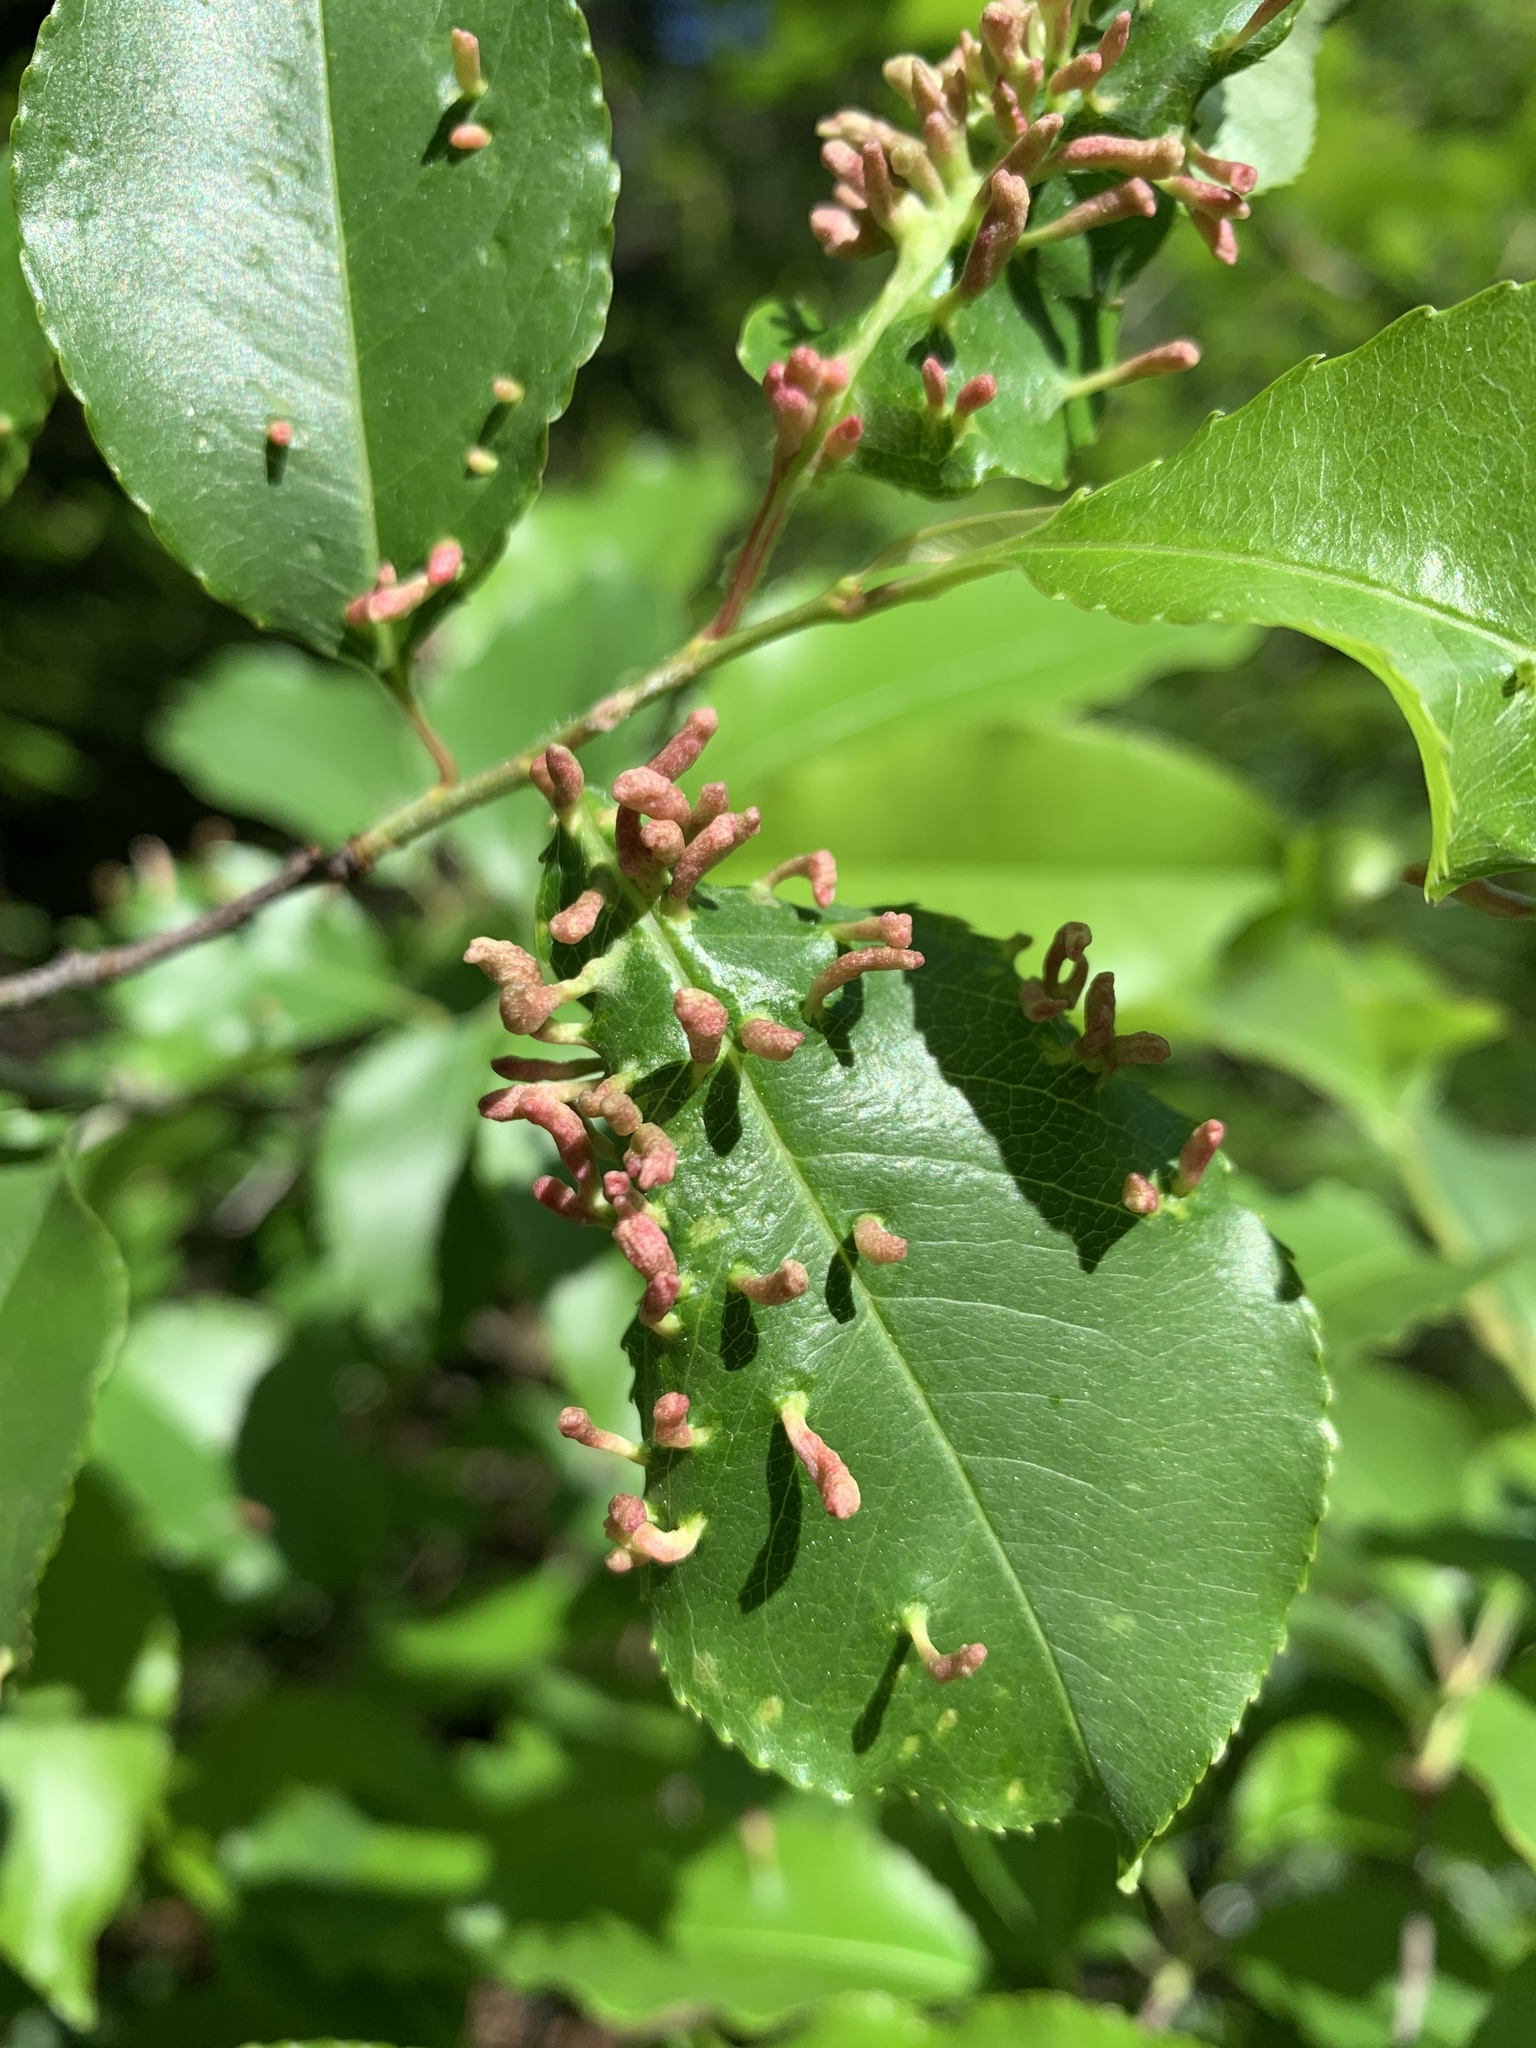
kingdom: Animalia
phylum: Arthropoda
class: Arachnida
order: Trombidiformes
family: Eriophyidae
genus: Eriophyes
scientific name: Eriophyes
